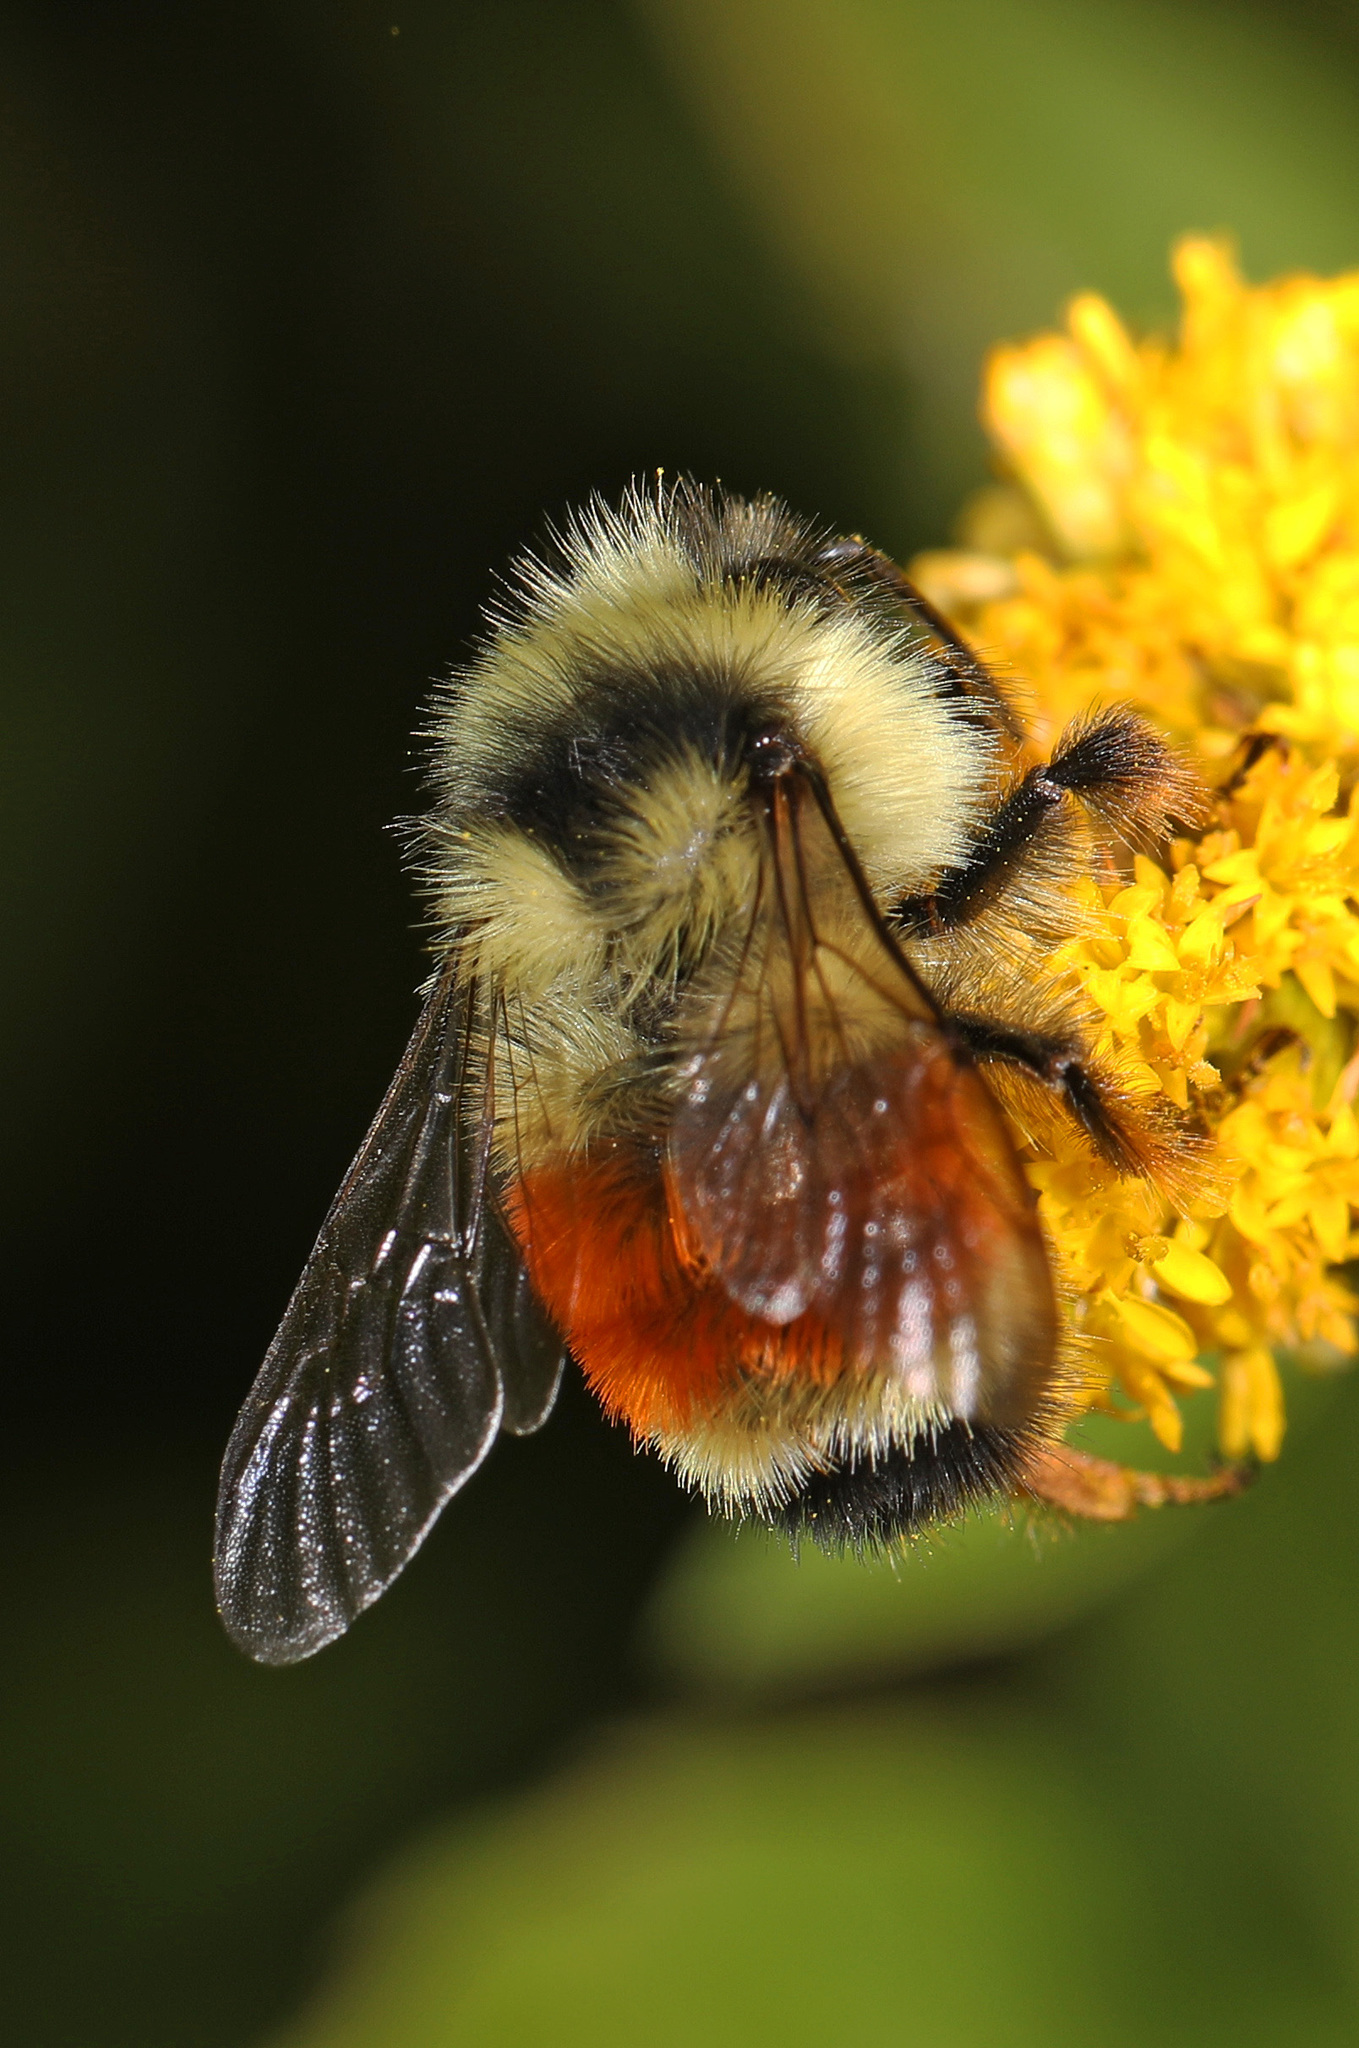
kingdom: Animalia
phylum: Arthropoda
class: Insecta
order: Hymenoptera
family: Apidae
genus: Bombus
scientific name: Bombus ternarius
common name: Tri-colored bumble bee
